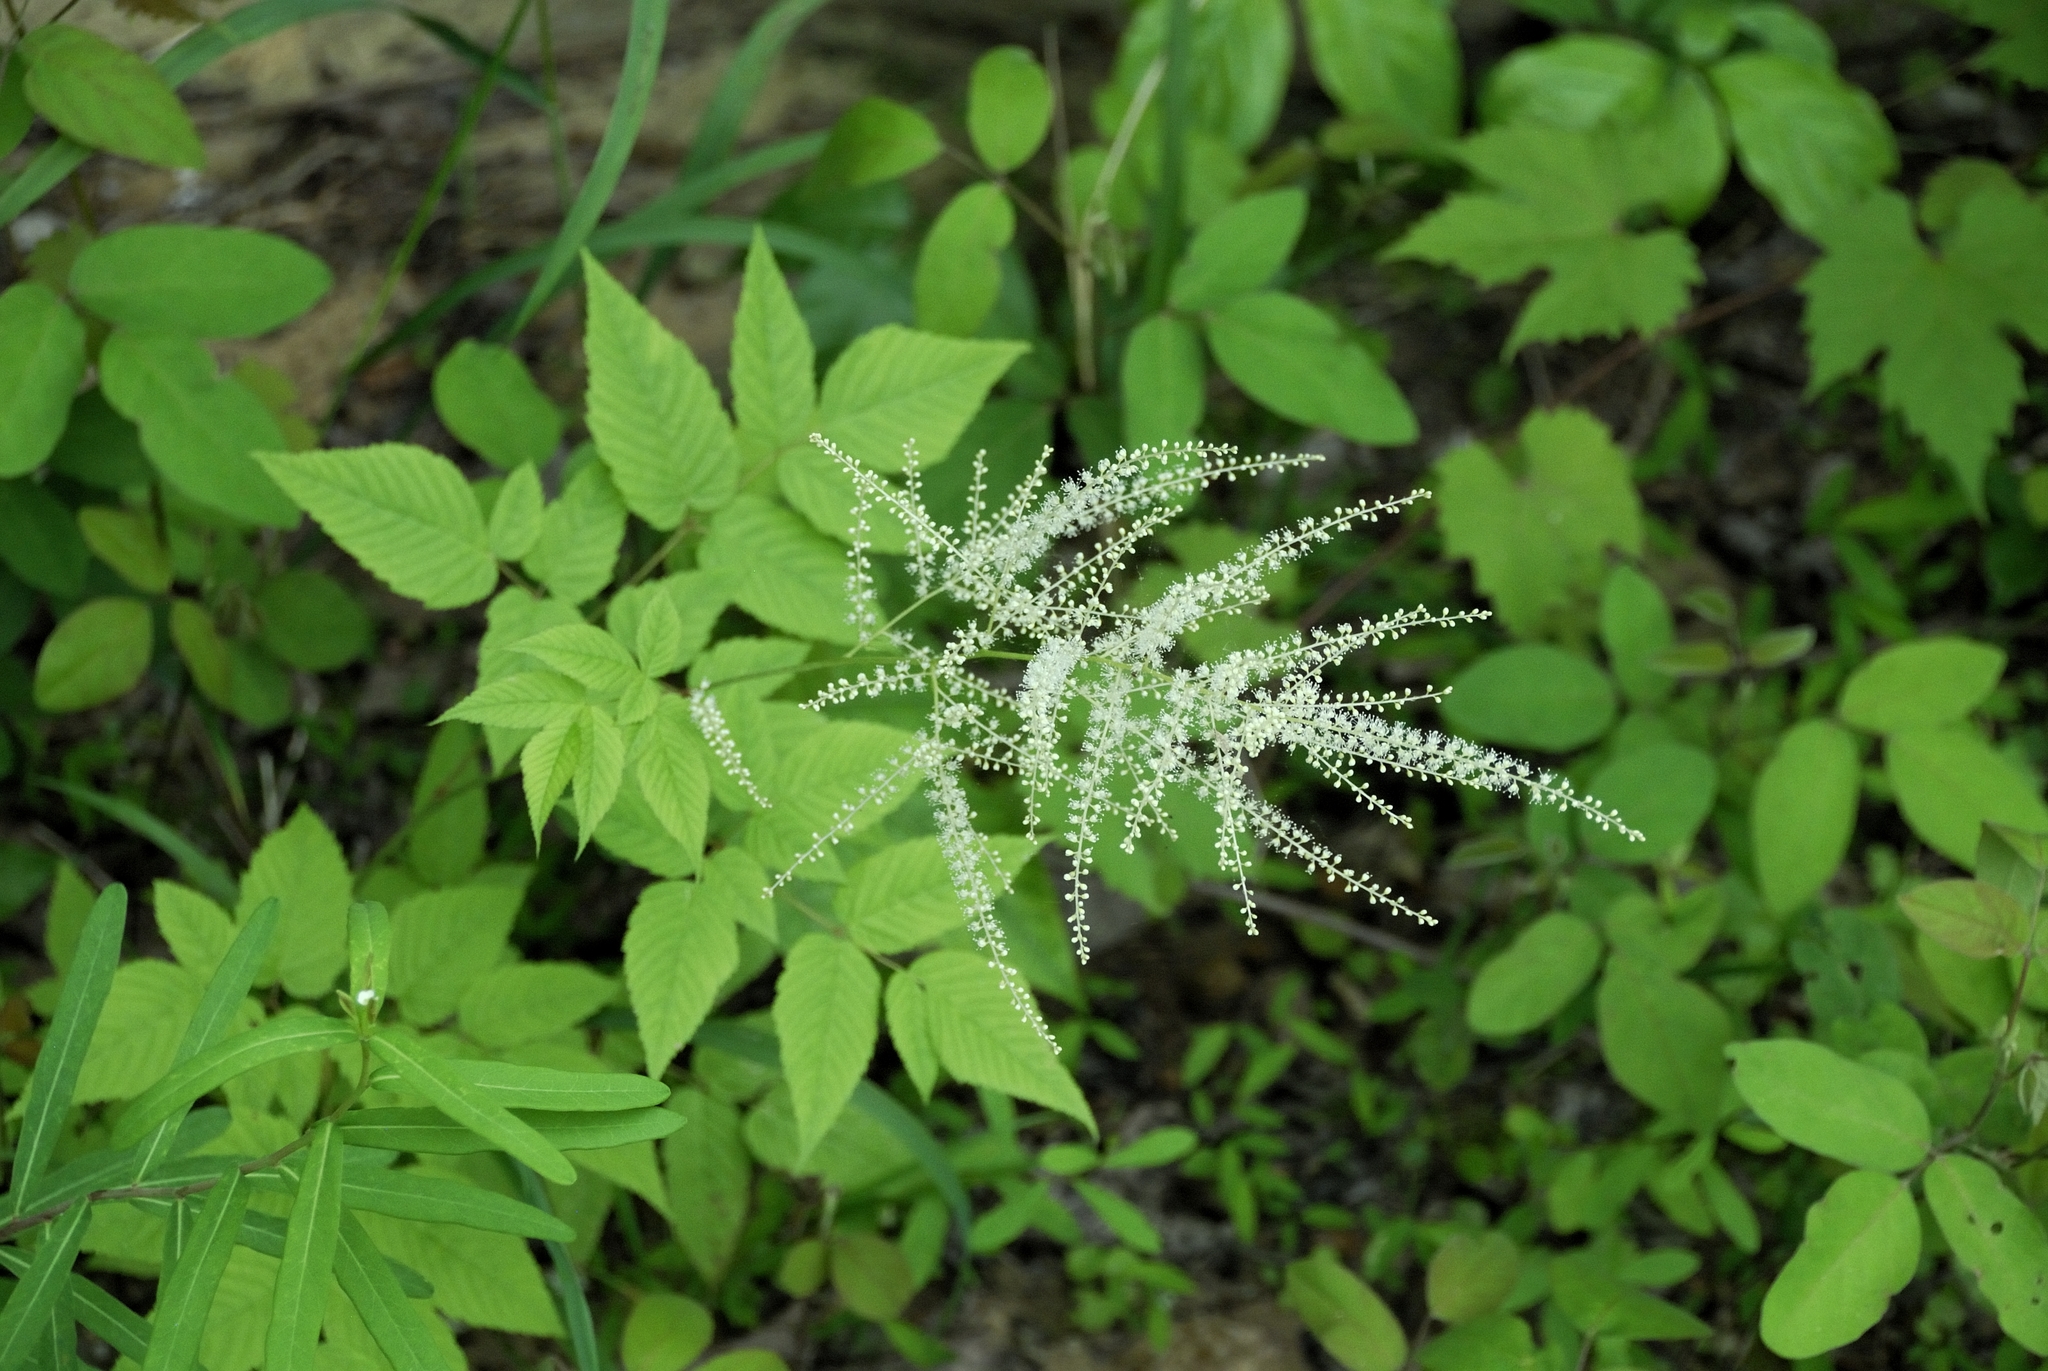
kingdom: Plantae
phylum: Tracheophyta
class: Magnoliopsida
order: Rosales
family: Rosaceae
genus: Aruncus
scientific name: Aruncus dioicus
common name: Buck's-beard
